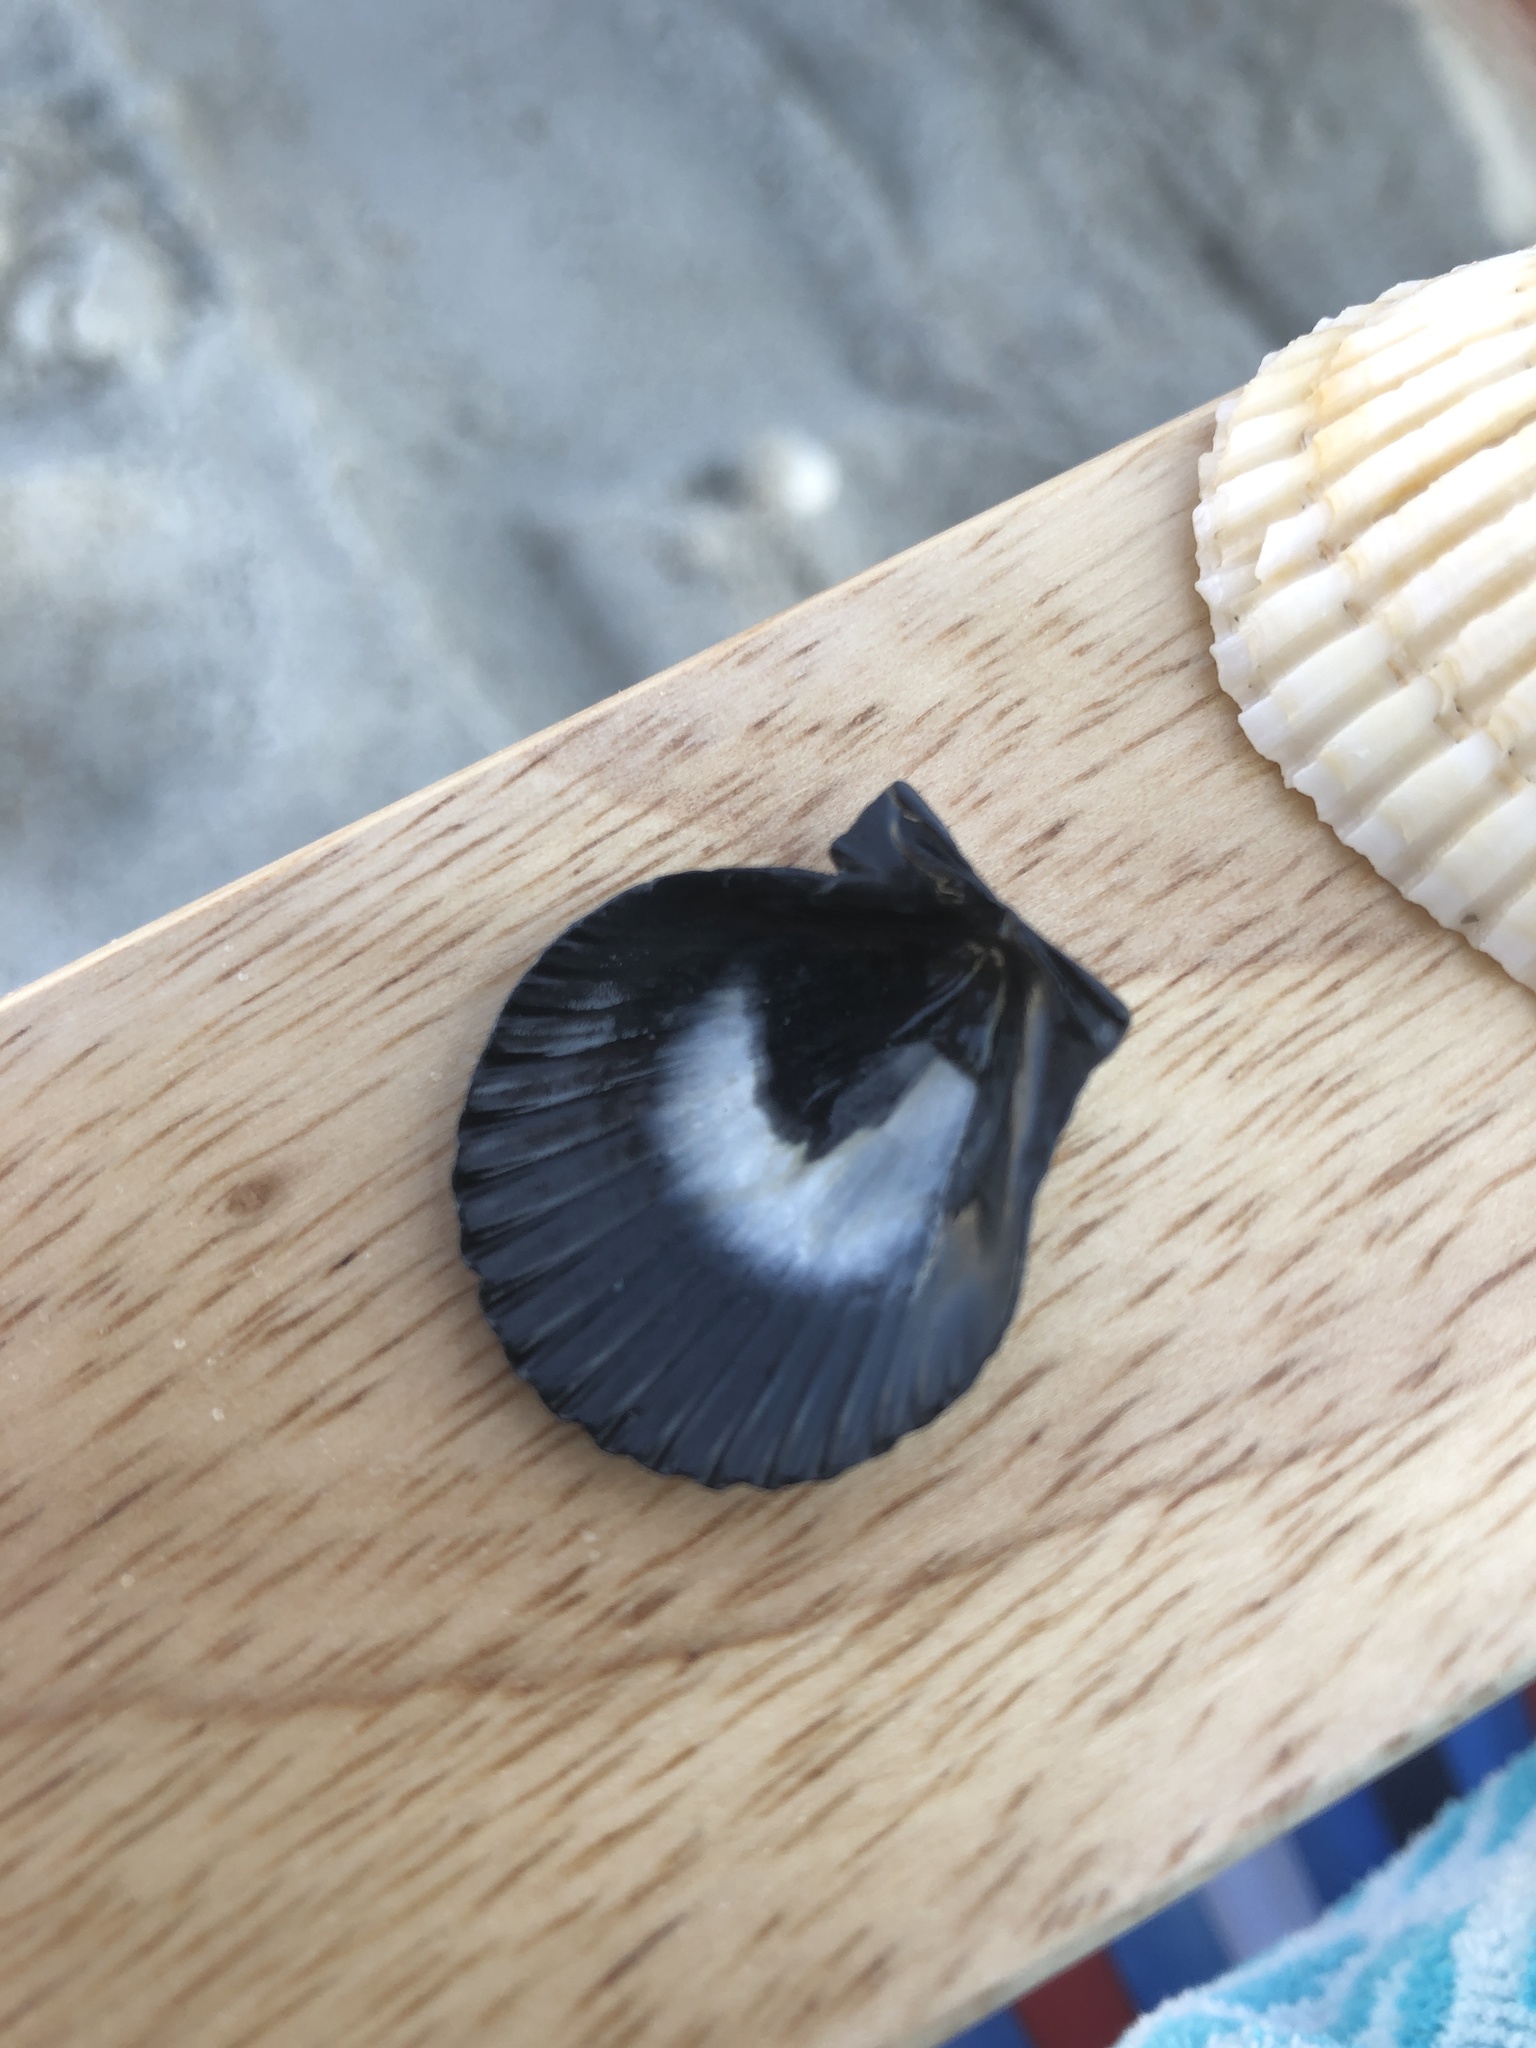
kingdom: Animalia
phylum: Mollusca
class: Bivalvia
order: Pectinida
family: Pectinidae
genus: Argopecten
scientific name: Argopecten irradians
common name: Atlantic bay scallop
